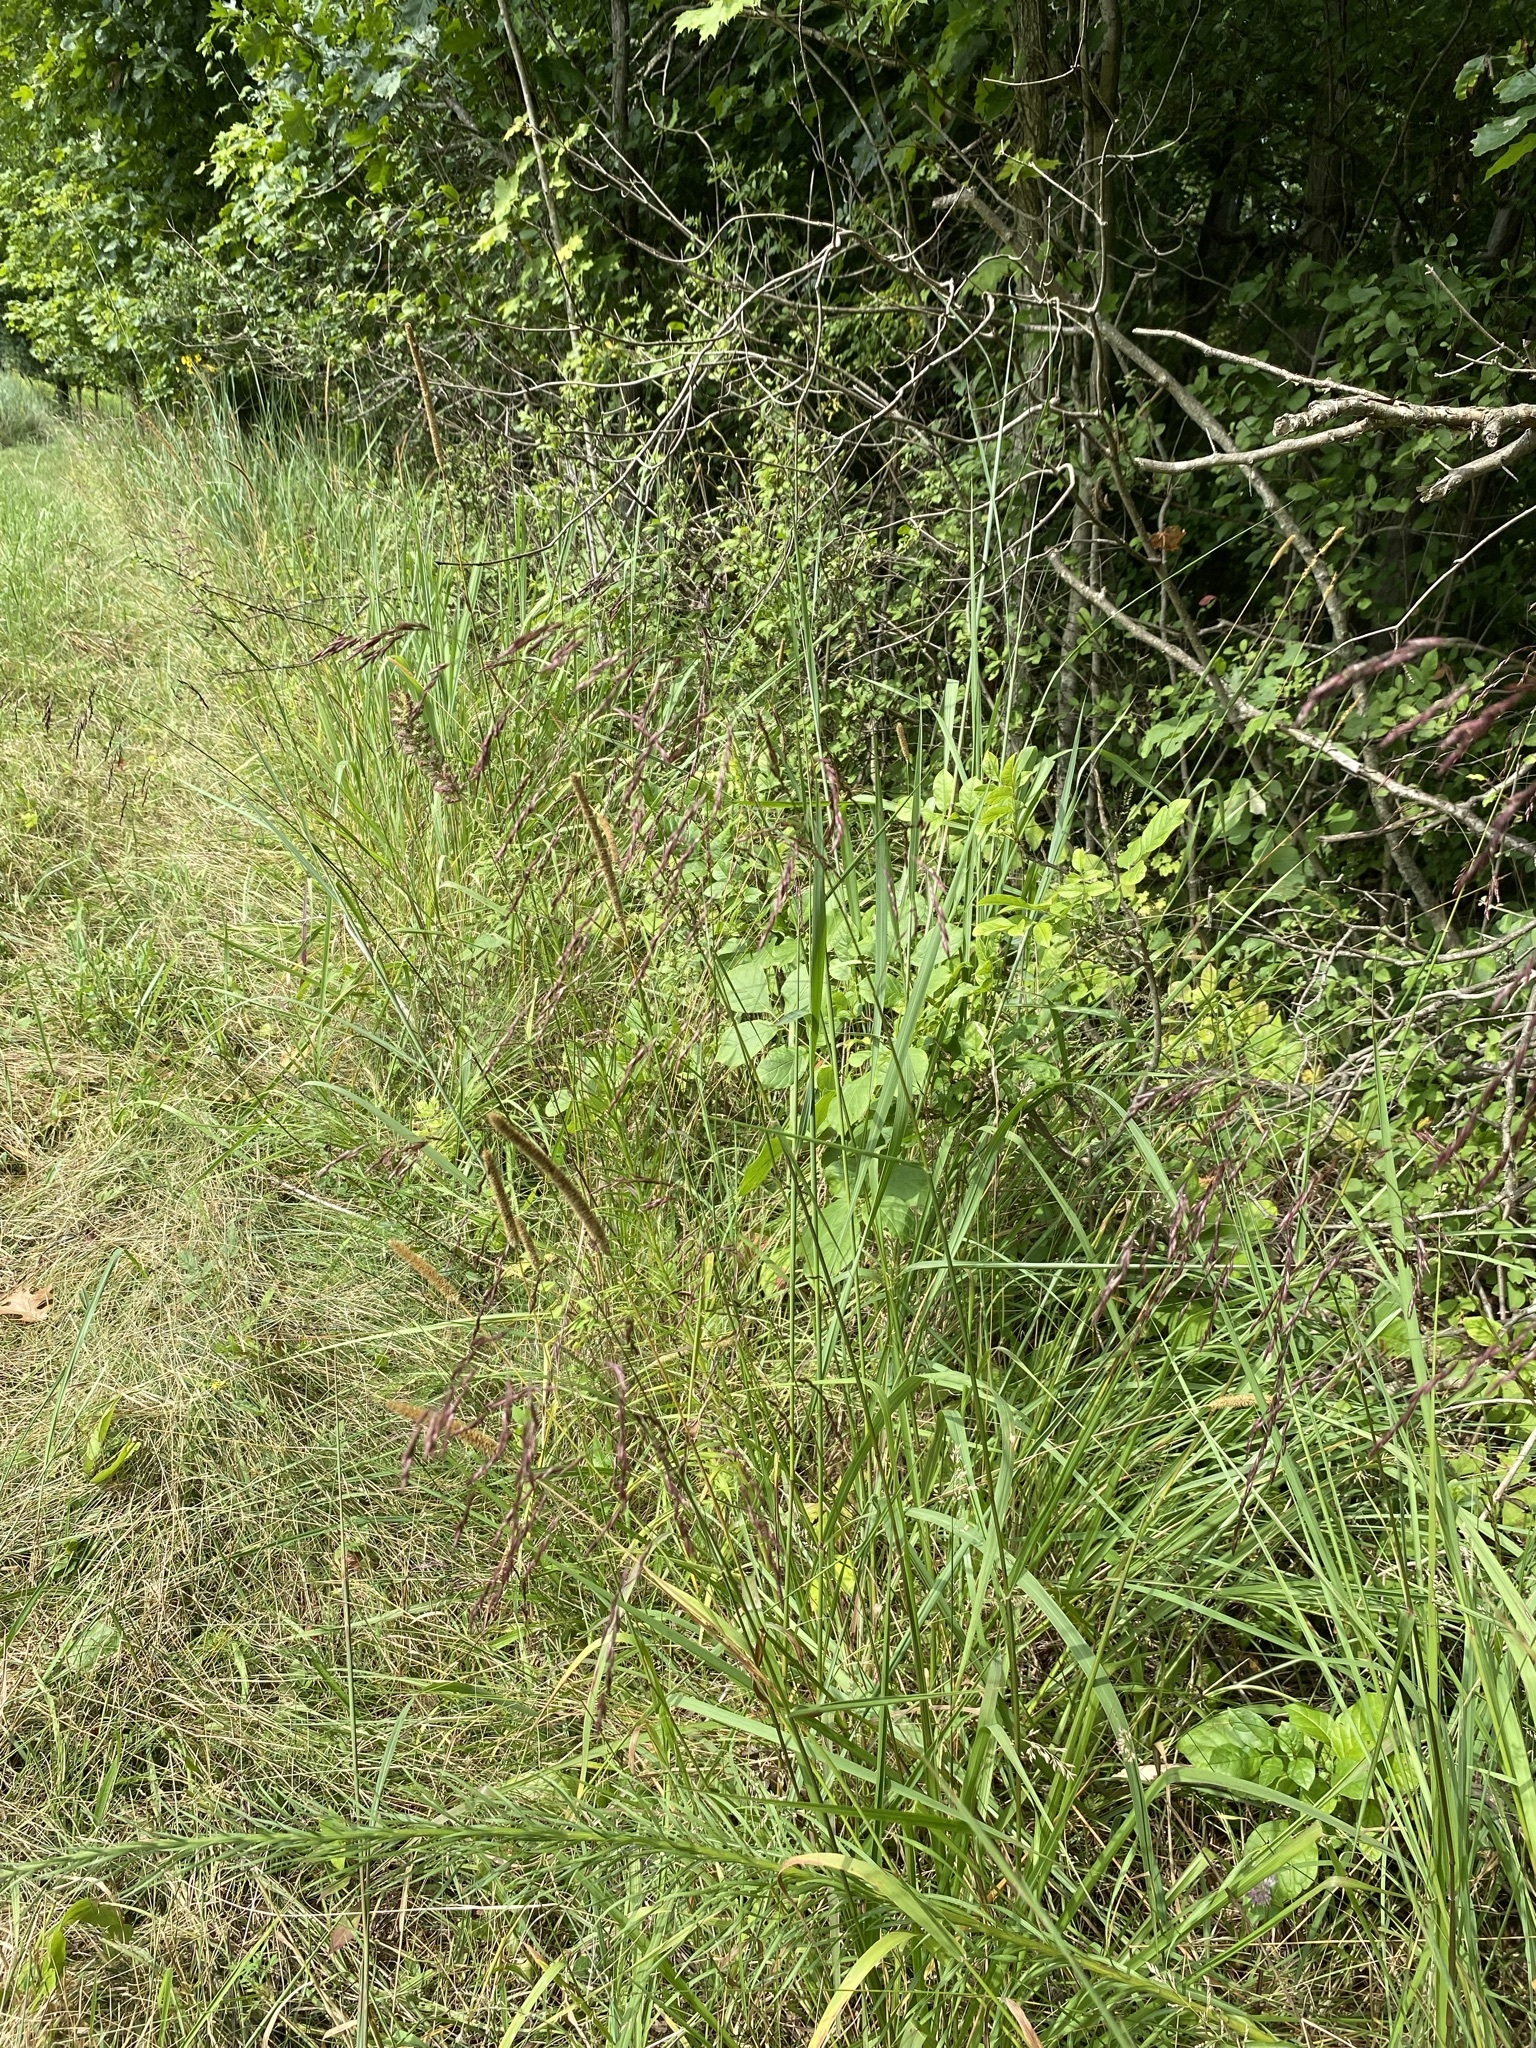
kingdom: Plantae
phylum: Tracheophyta
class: Liliopsida
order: Poales
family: Poaceae
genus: Tridens
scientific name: Tridens flavus
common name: Purpletop
